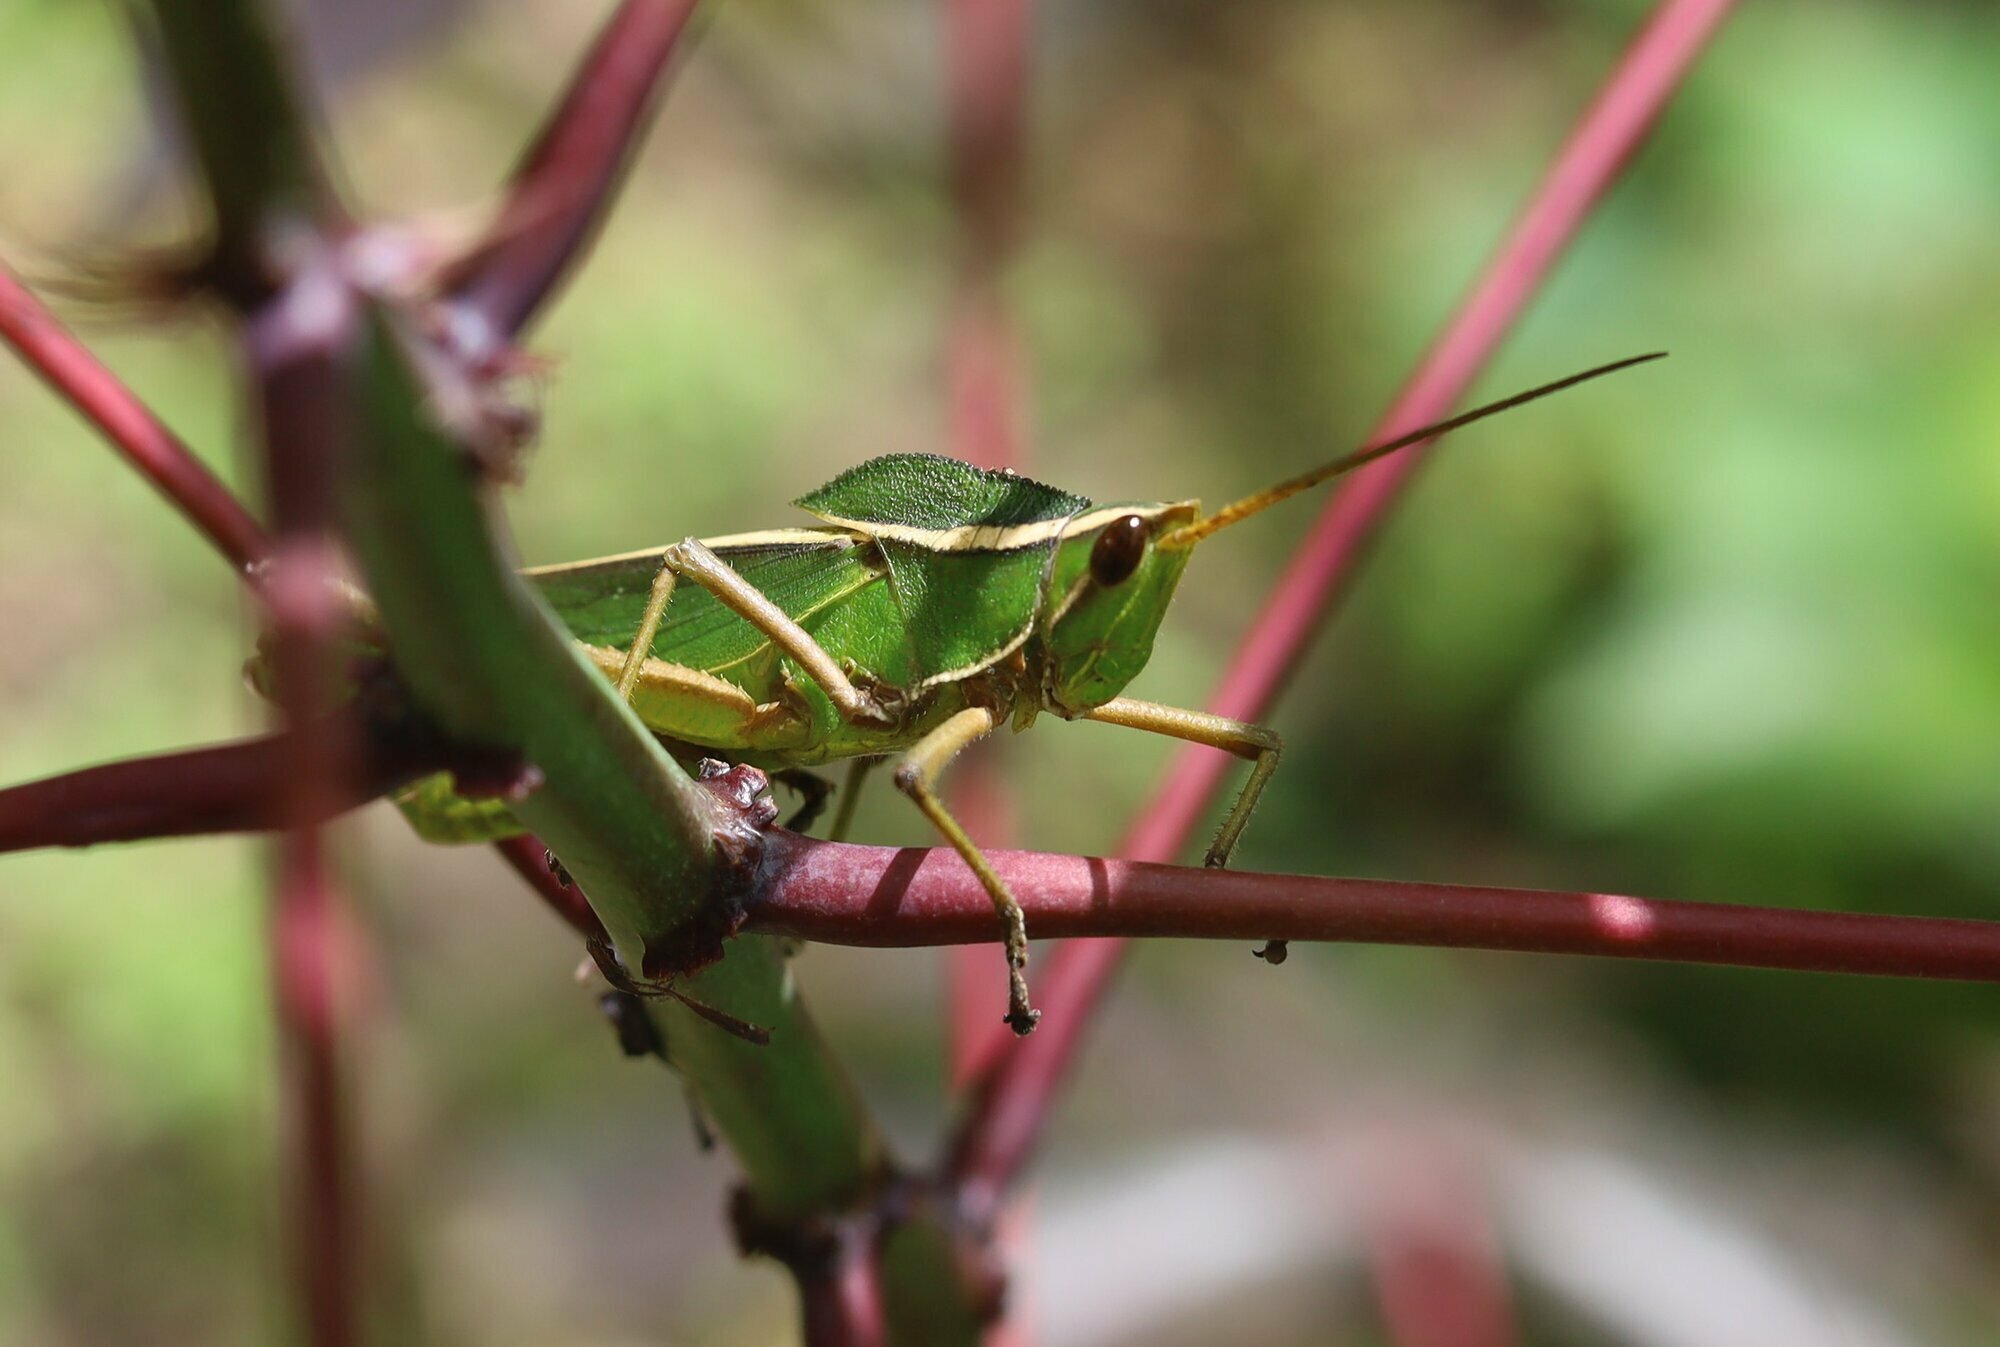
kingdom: Animalia
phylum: Arthropoda
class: Insecta
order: Orthoptera
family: Romaleidae
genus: Prionolopha
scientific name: Prionolopha serrata
